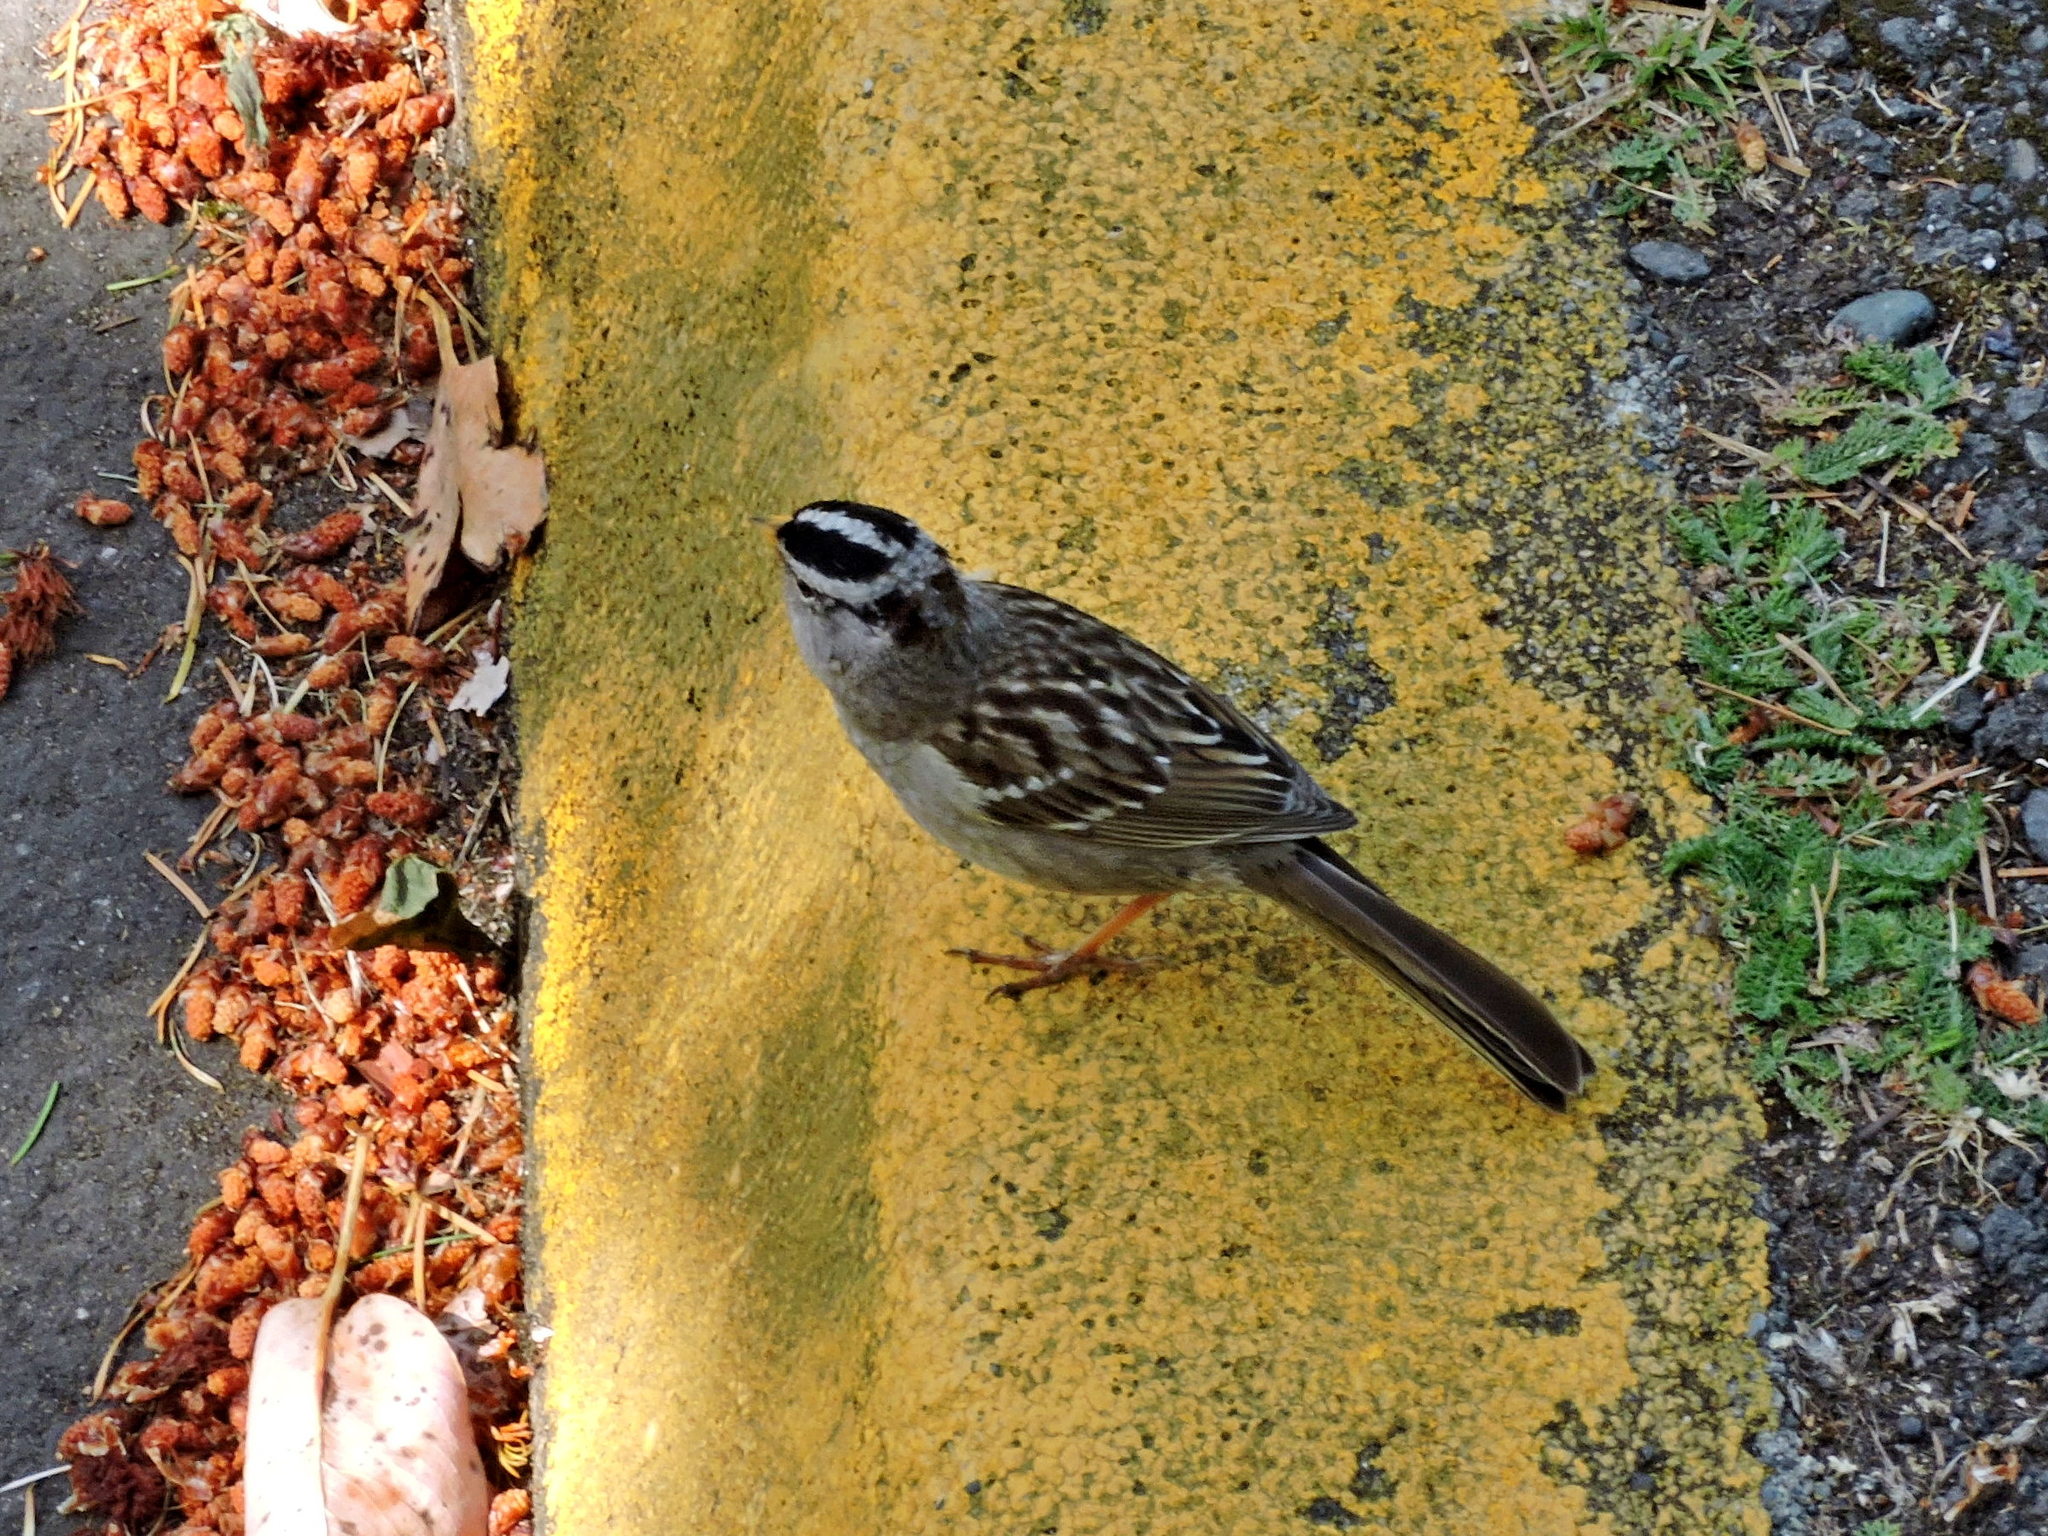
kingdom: Animalia
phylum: Chordata
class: Aves
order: Passeriformes
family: Passerellidae
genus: Zonotrichia
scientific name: Zonotrichia leucophrys
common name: White-crowned sparrow
